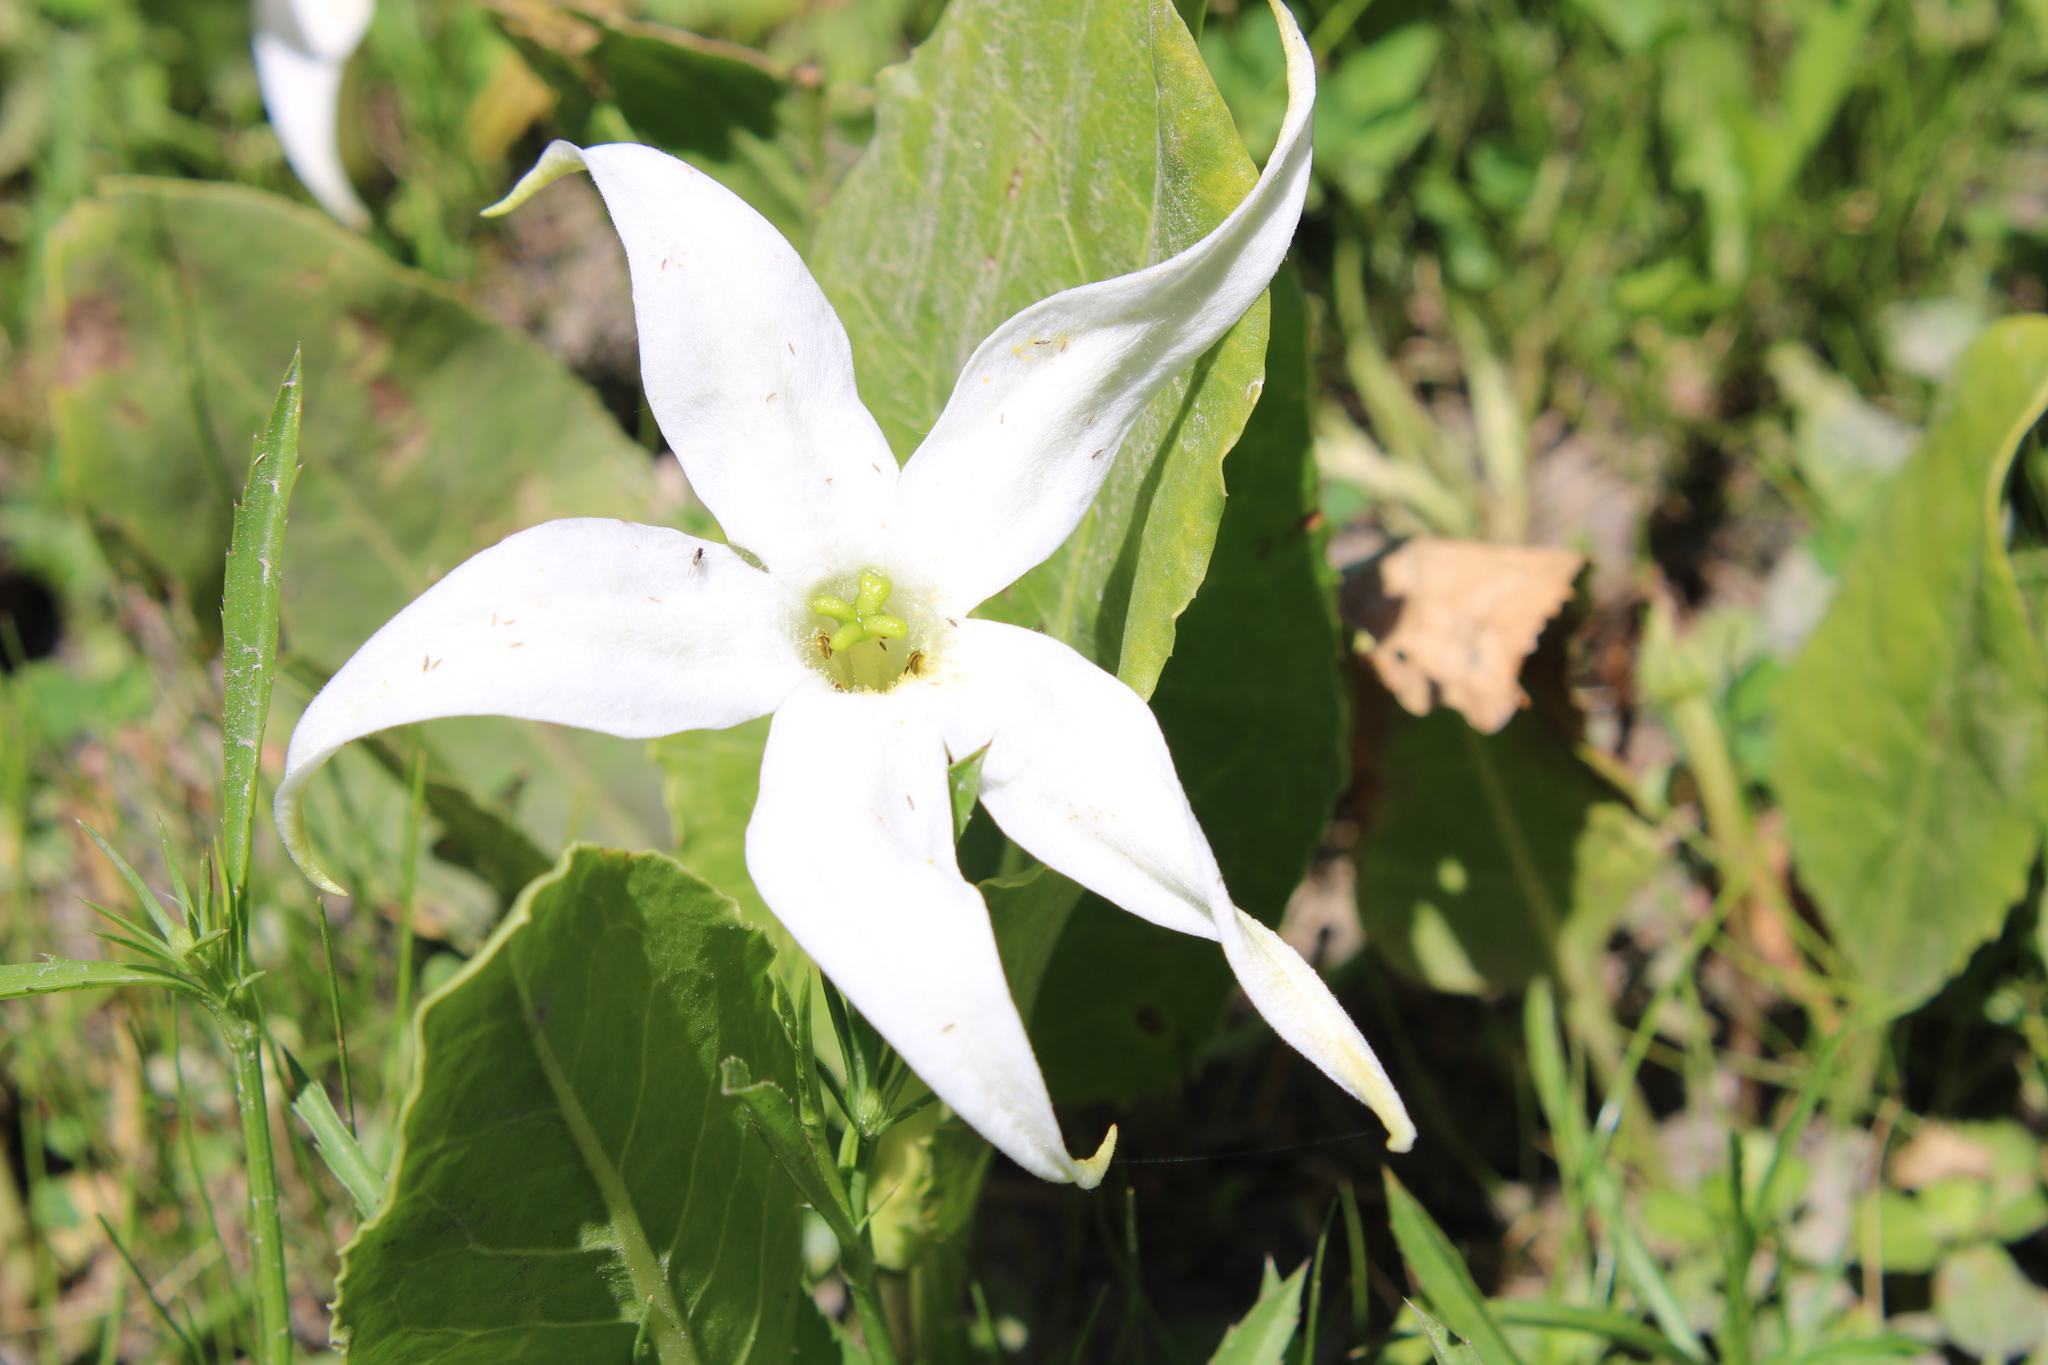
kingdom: Plantae
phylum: Tracheophyta
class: Magnoliopsida
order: Solanales
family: Solanaceae
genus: Jaborosa
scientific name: Jaborosa integrifolia
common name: Springblossom
